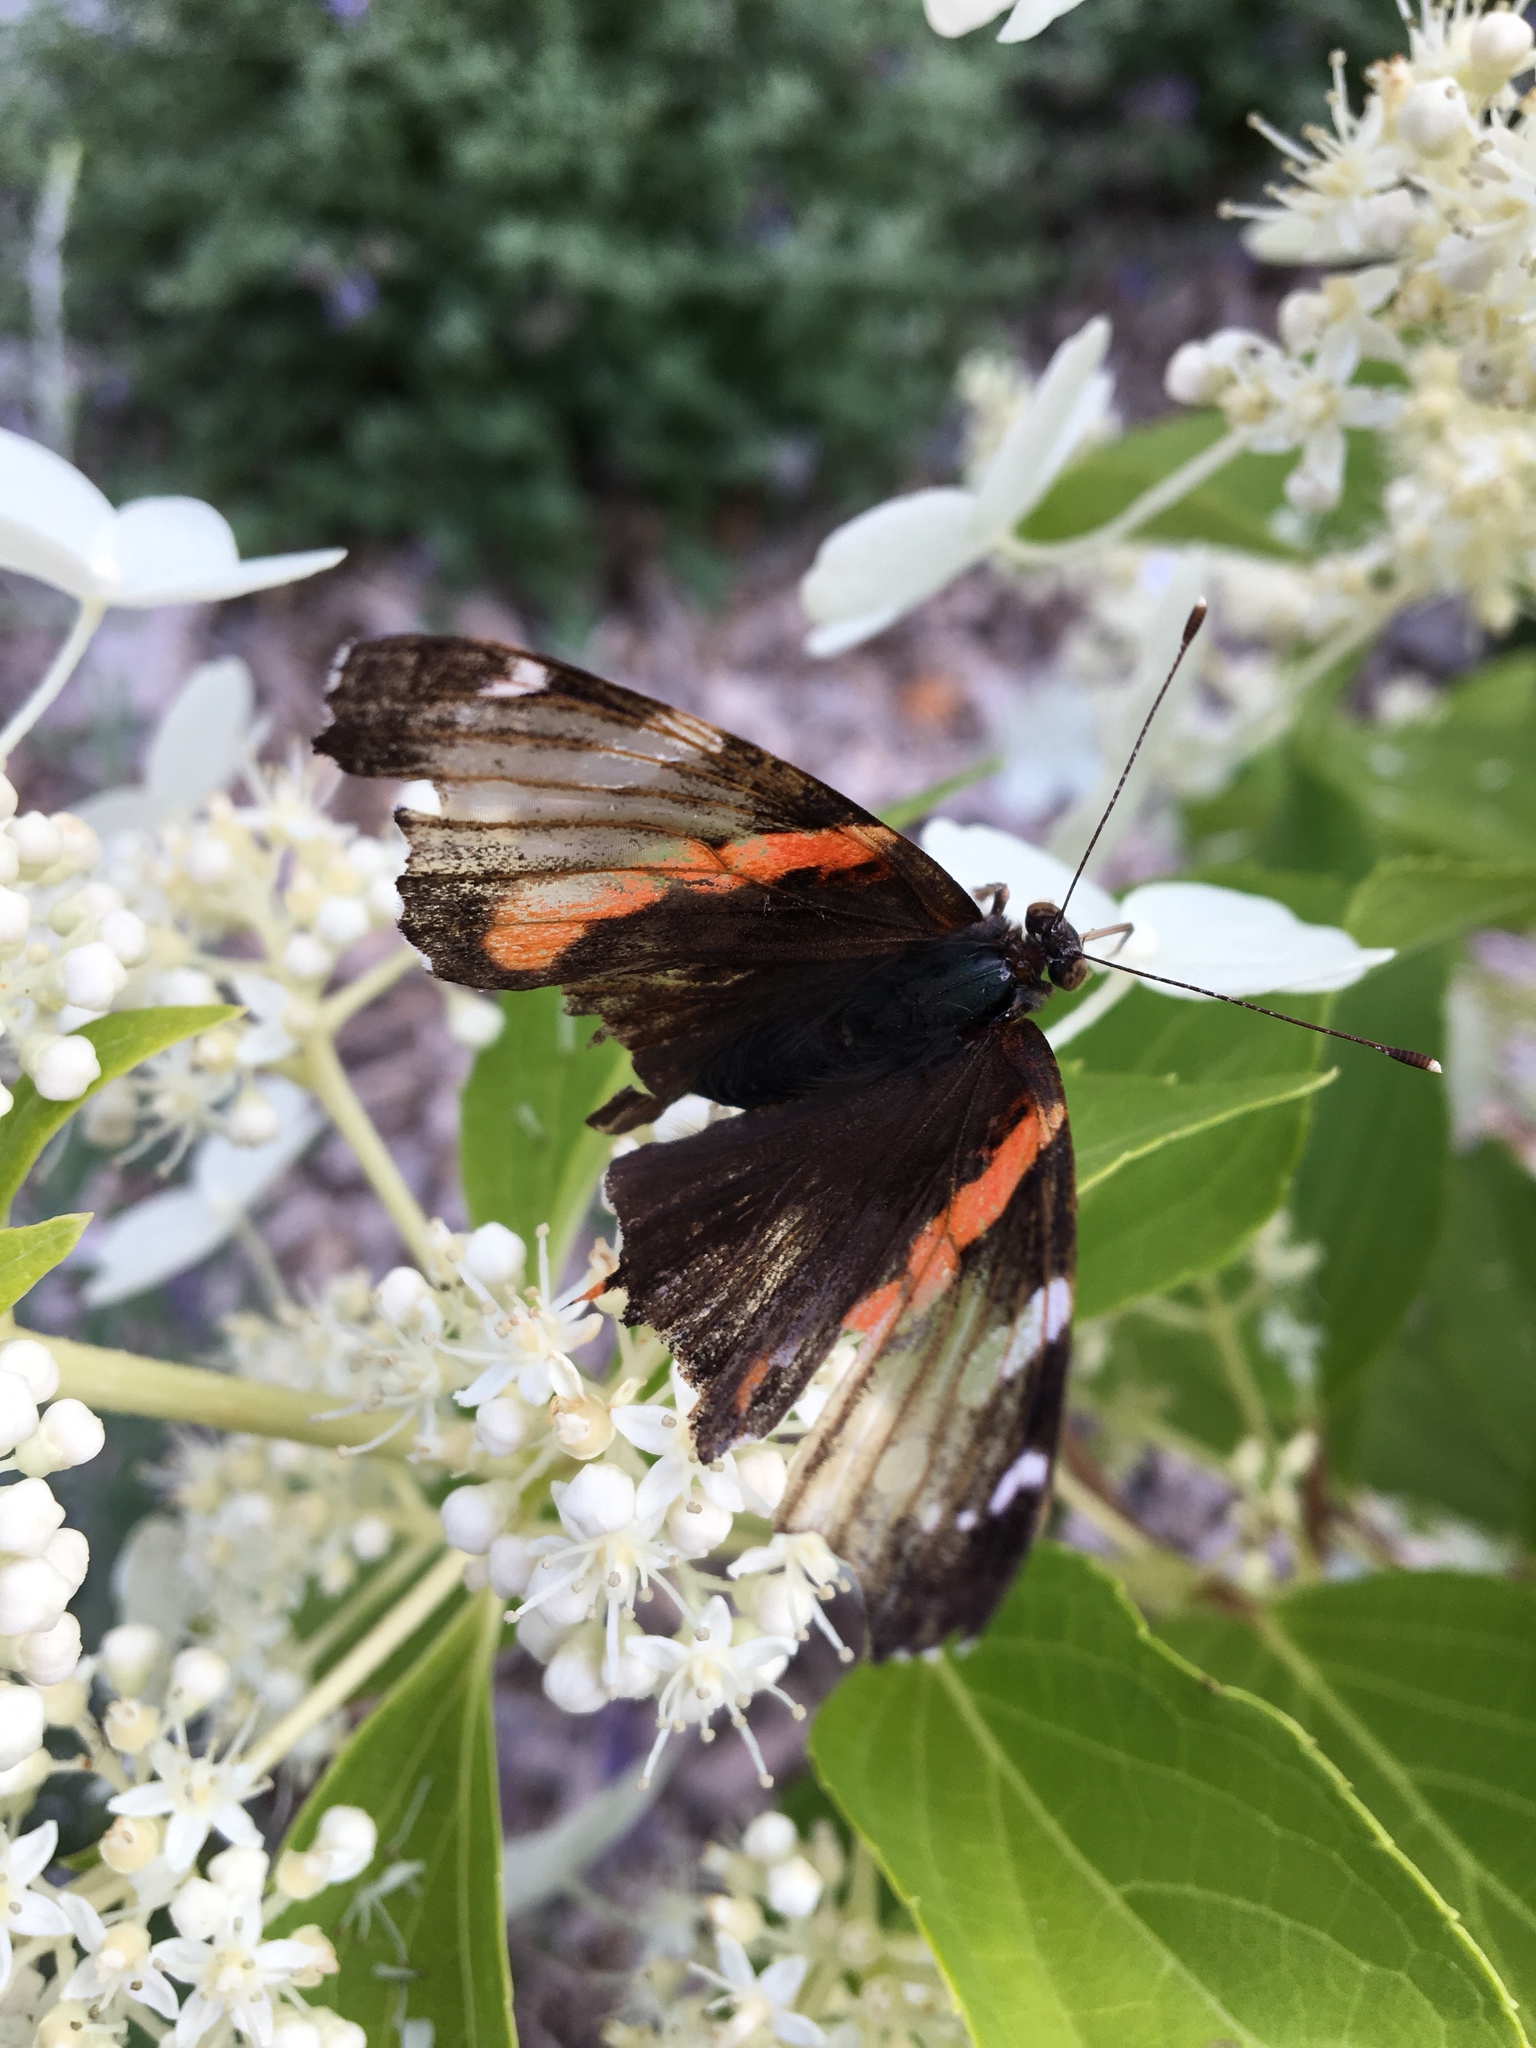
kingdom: Animalia
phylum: Arthropoda
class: Insecta
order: Lepidoptera
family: Nymphalidae
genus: Vanessa
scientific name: Vanessa atalanta
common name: Red admiral
